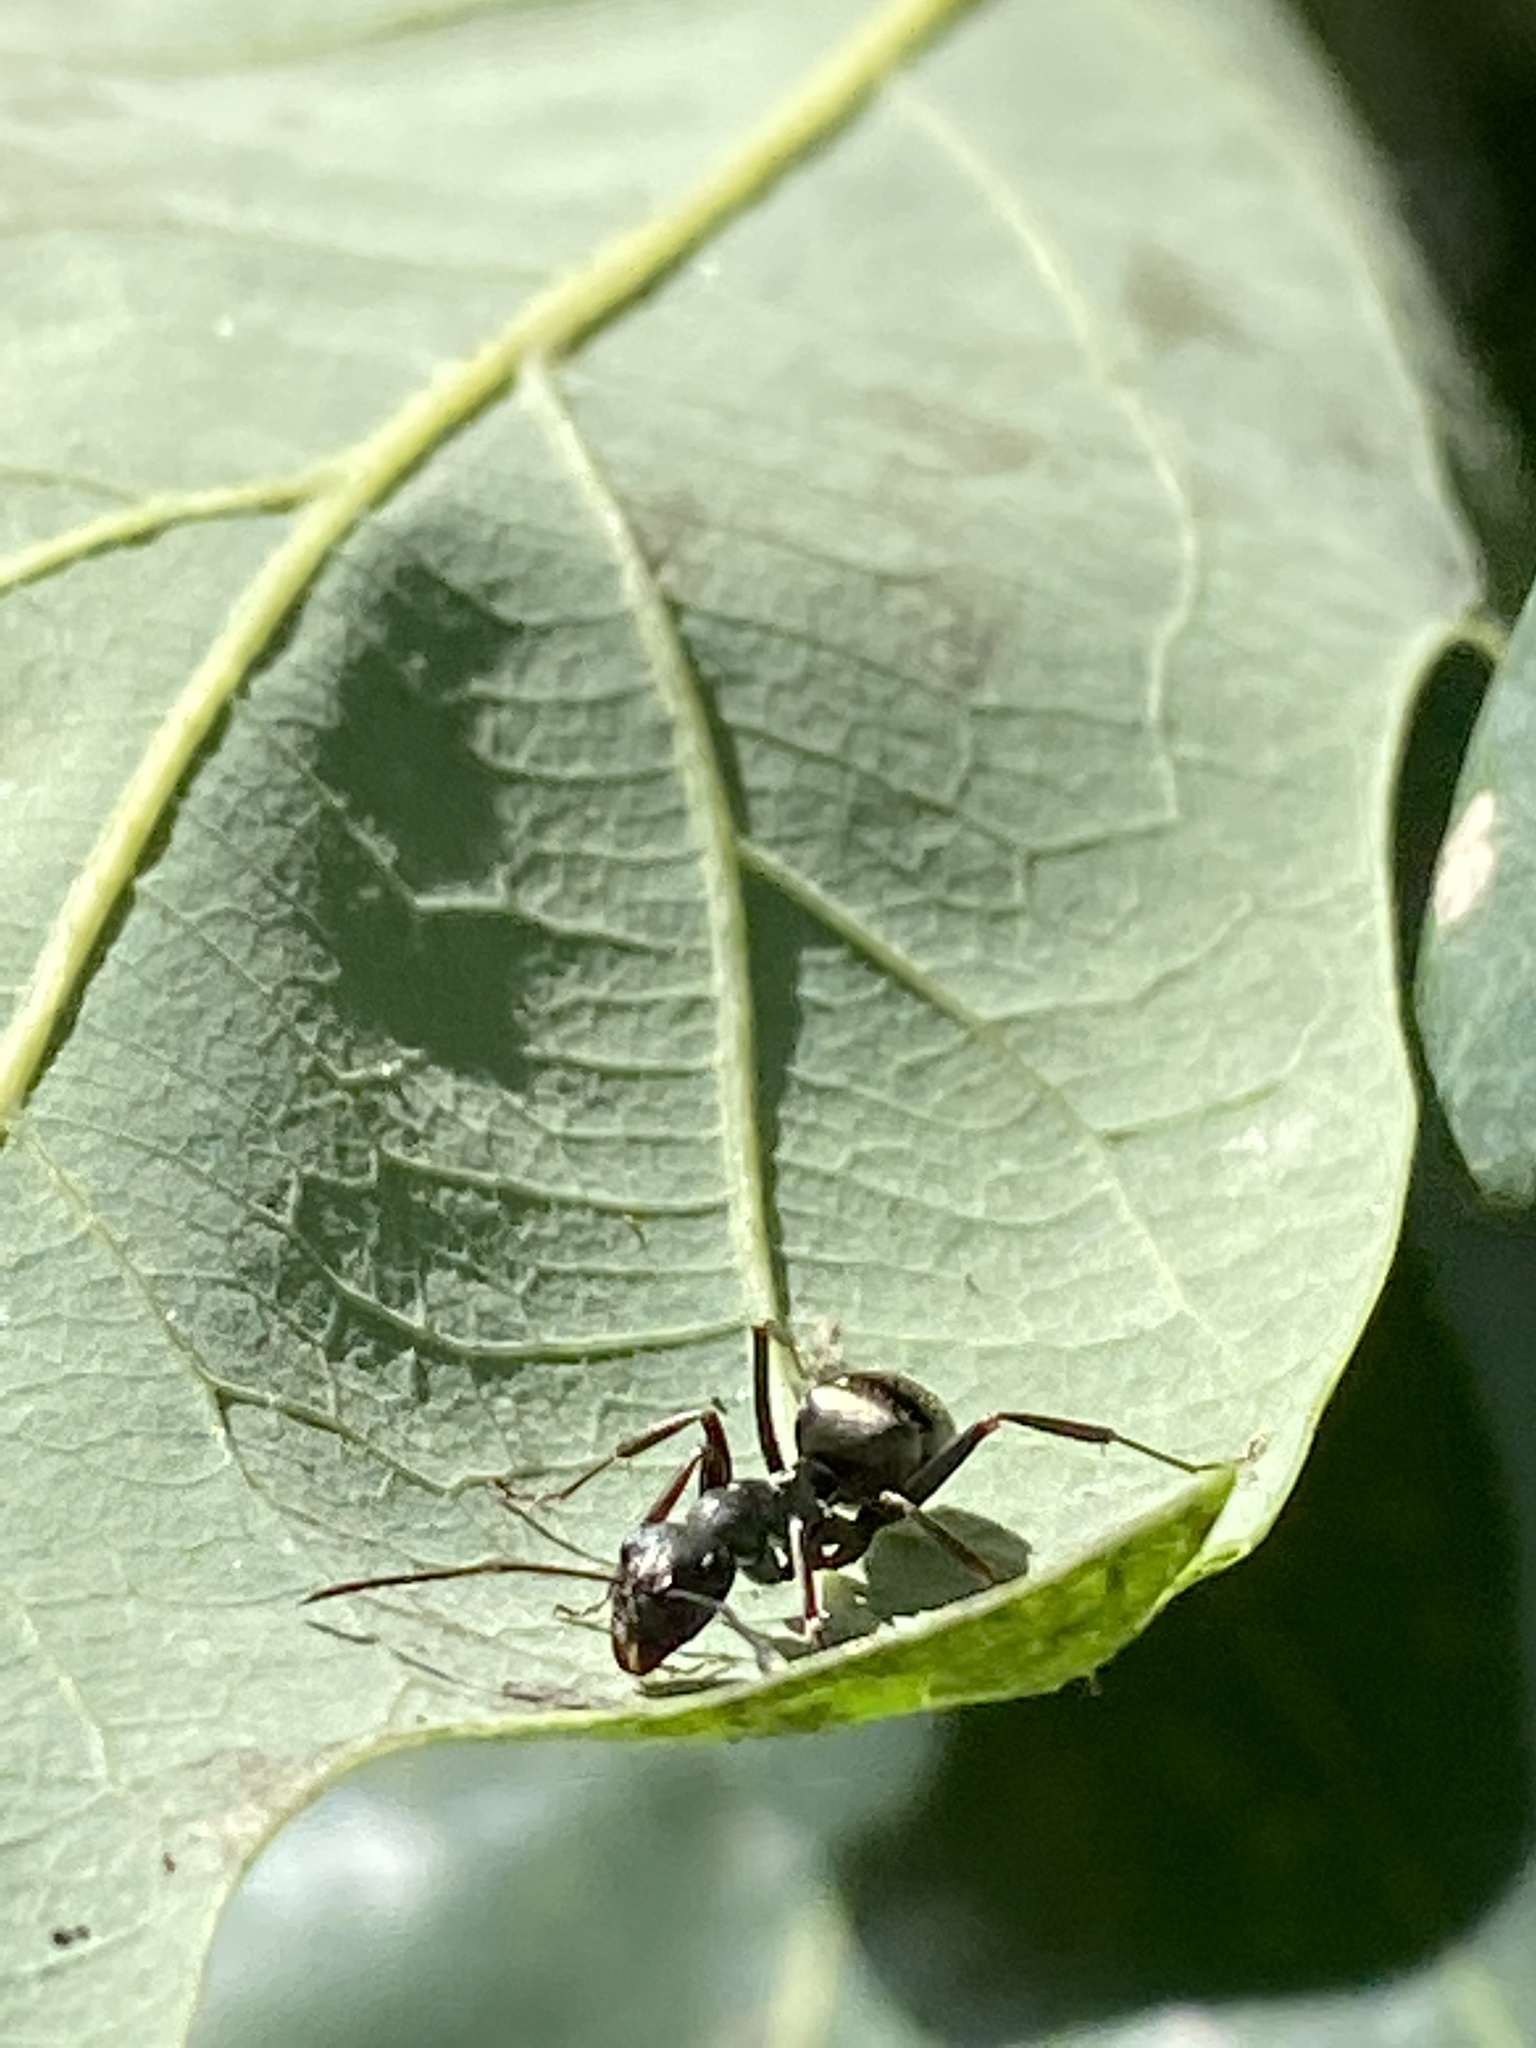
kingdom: Animalia
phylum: Arthropoda
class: Insecta
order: Hymenoptera
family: Formicidae
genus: Formica
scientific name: Formica subsericea
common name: Silky field ant
